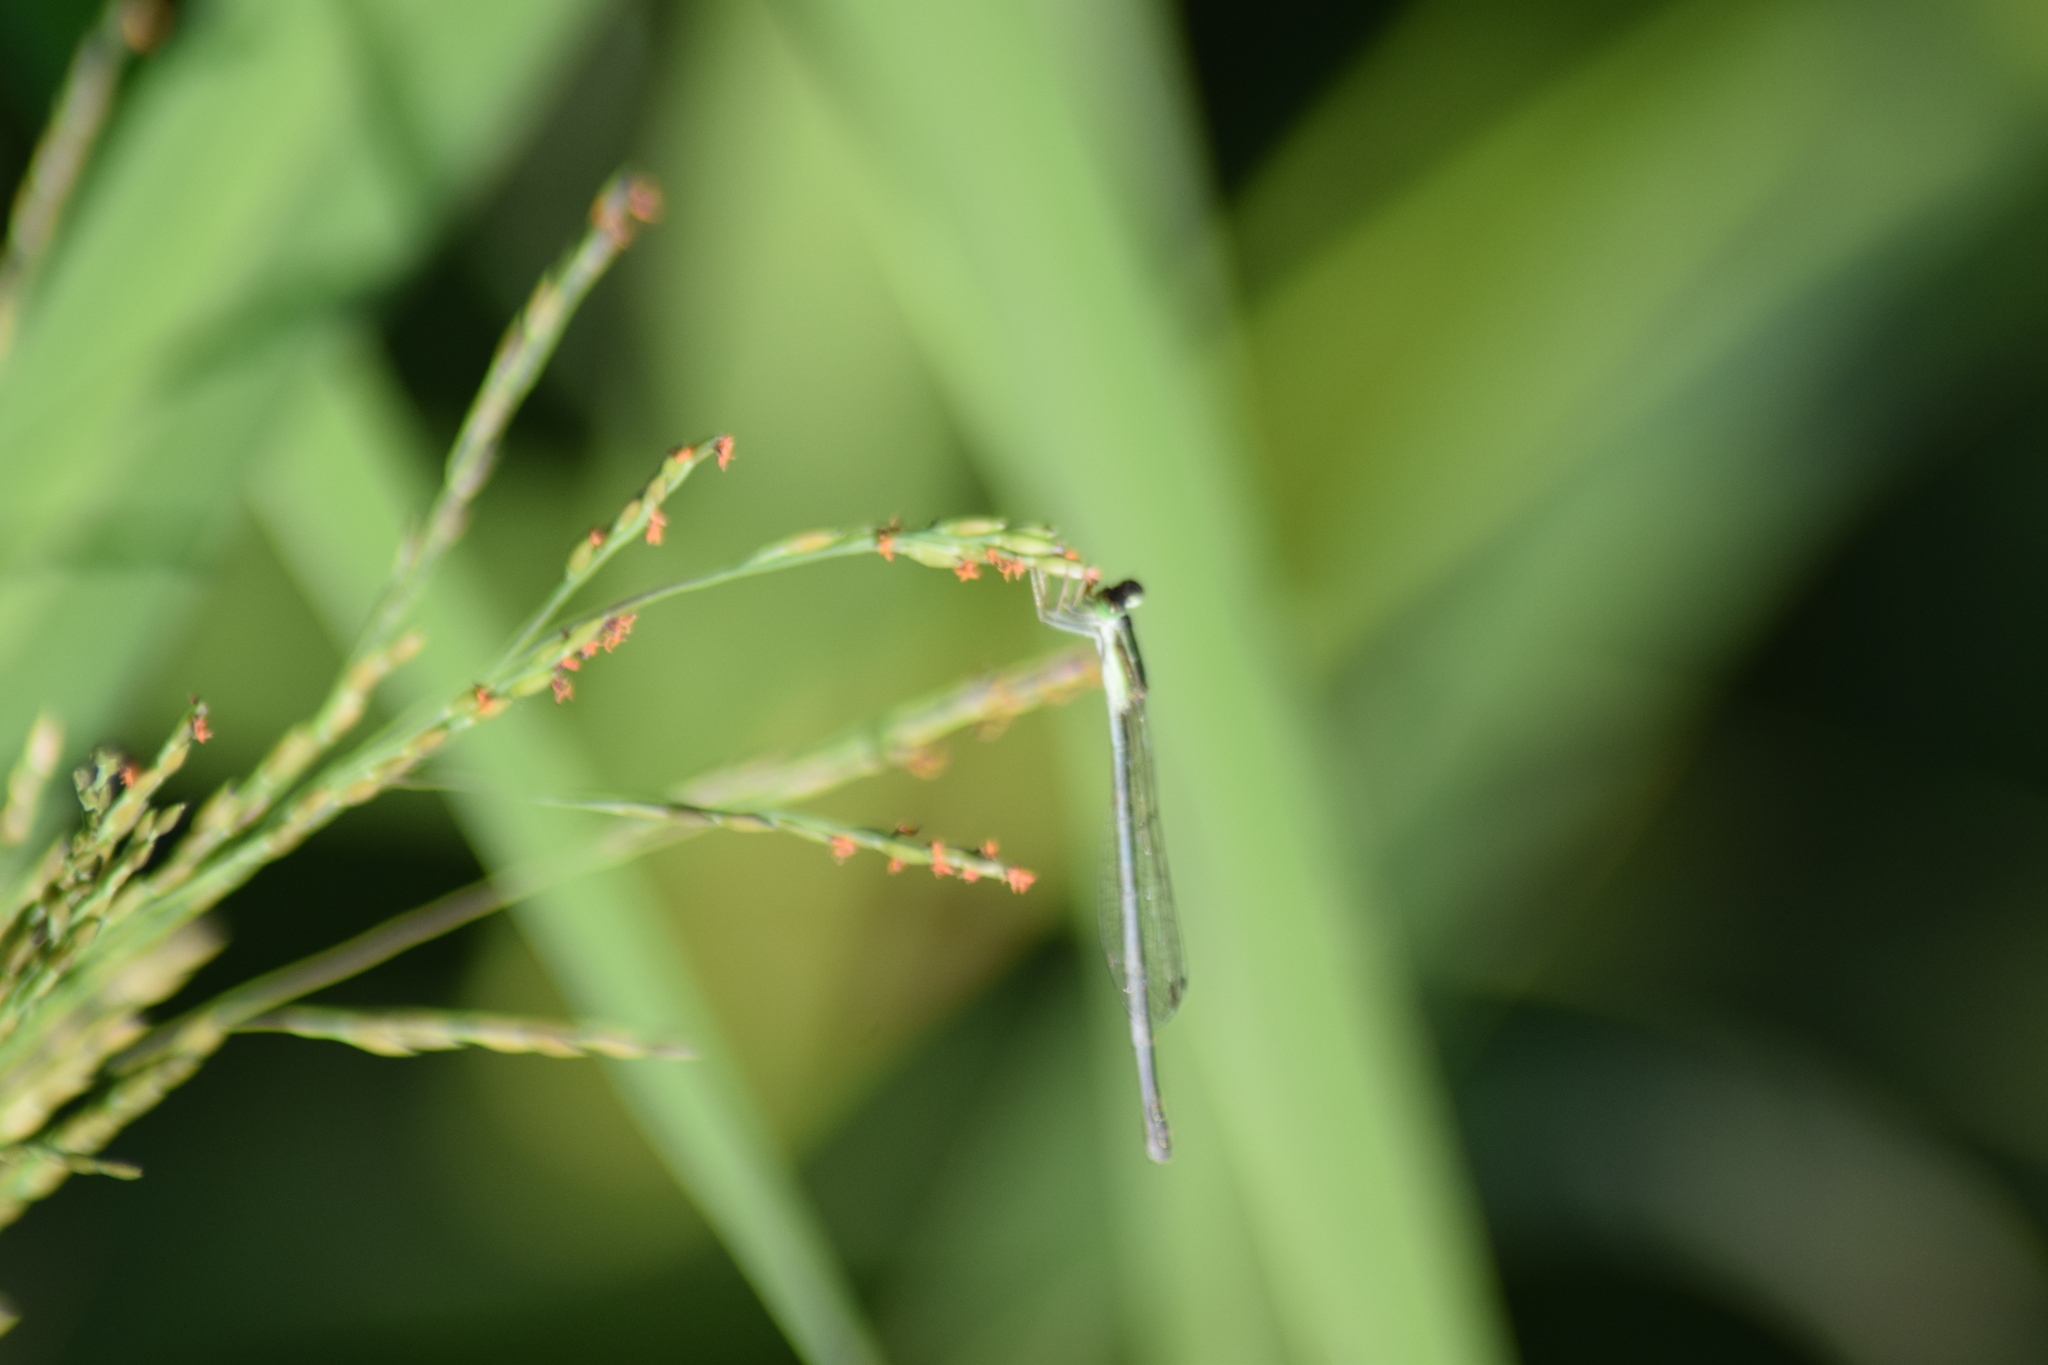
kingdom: Animalia
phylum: Arthropoda
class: Insecta
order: Odonata
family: Coenagrionidae
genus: Ischnura
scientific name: Ischnura hastata
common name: Citrine forktail
